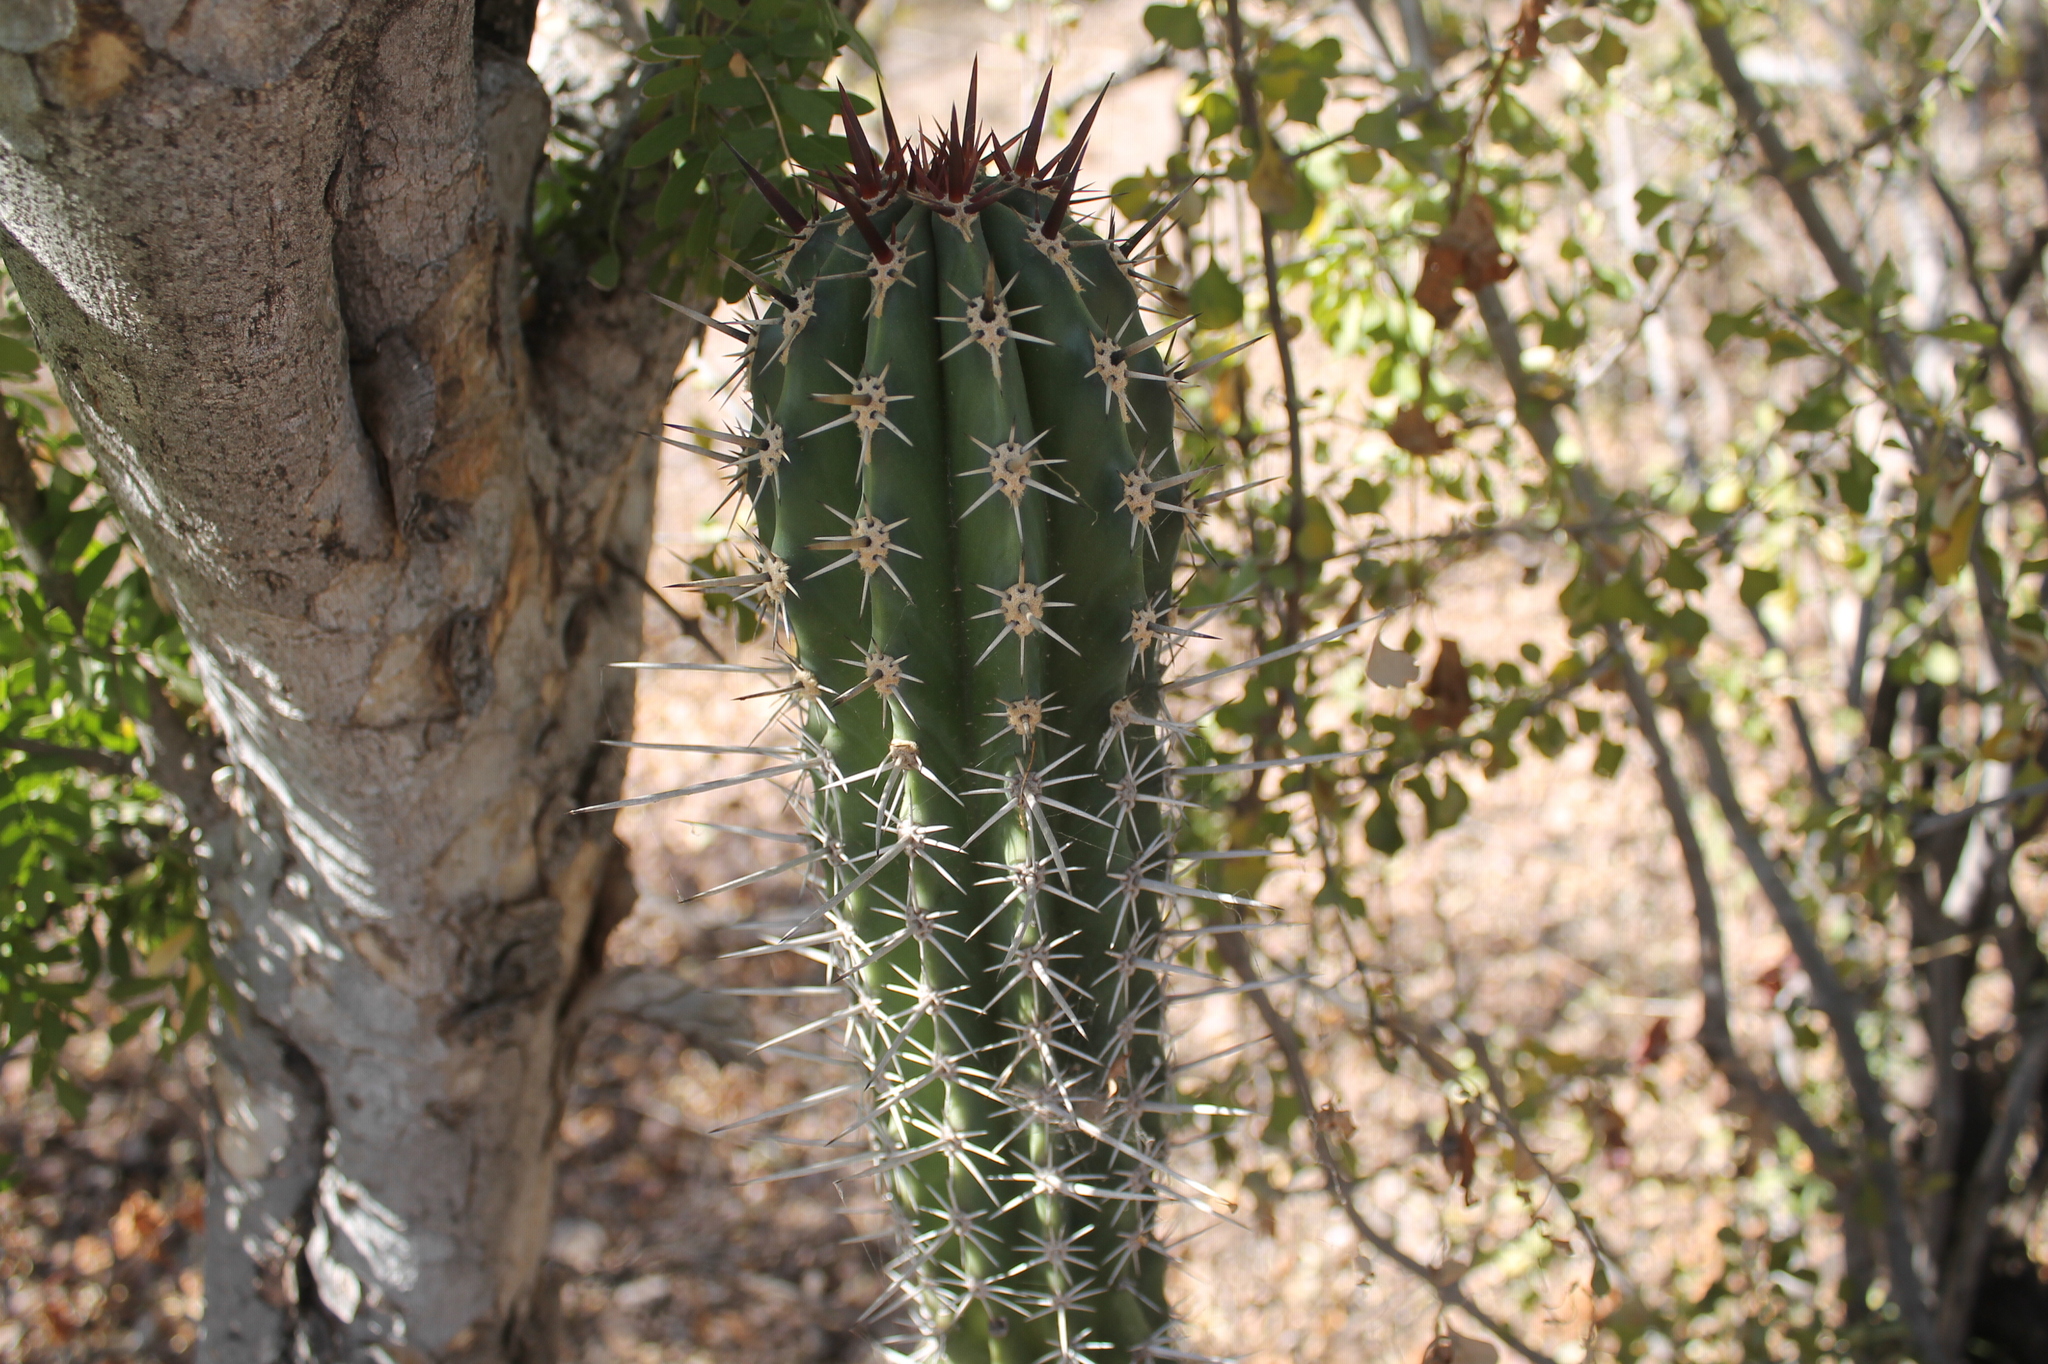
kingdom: Plantae
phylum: Tracheophyta
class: Magnoliopsida
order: Caryophyllales
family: Cactaceae
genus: Pachycereus
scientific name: Pachycereus pecten-aboriginum
